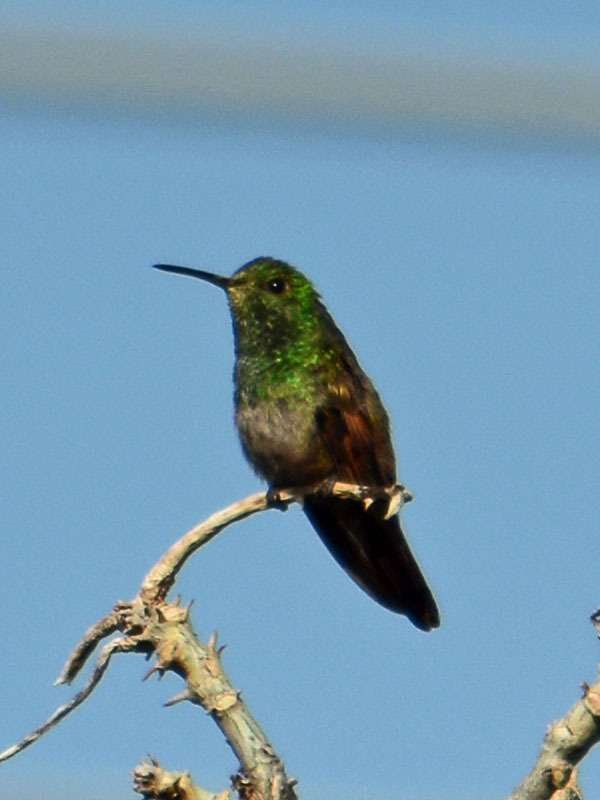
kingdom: Animalia
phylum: Chordata
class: Aves
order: Apodiformes
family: Trochilidae
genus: Saucerottia
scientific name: Saucerottia beryllina
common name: Berylline hummingbird
